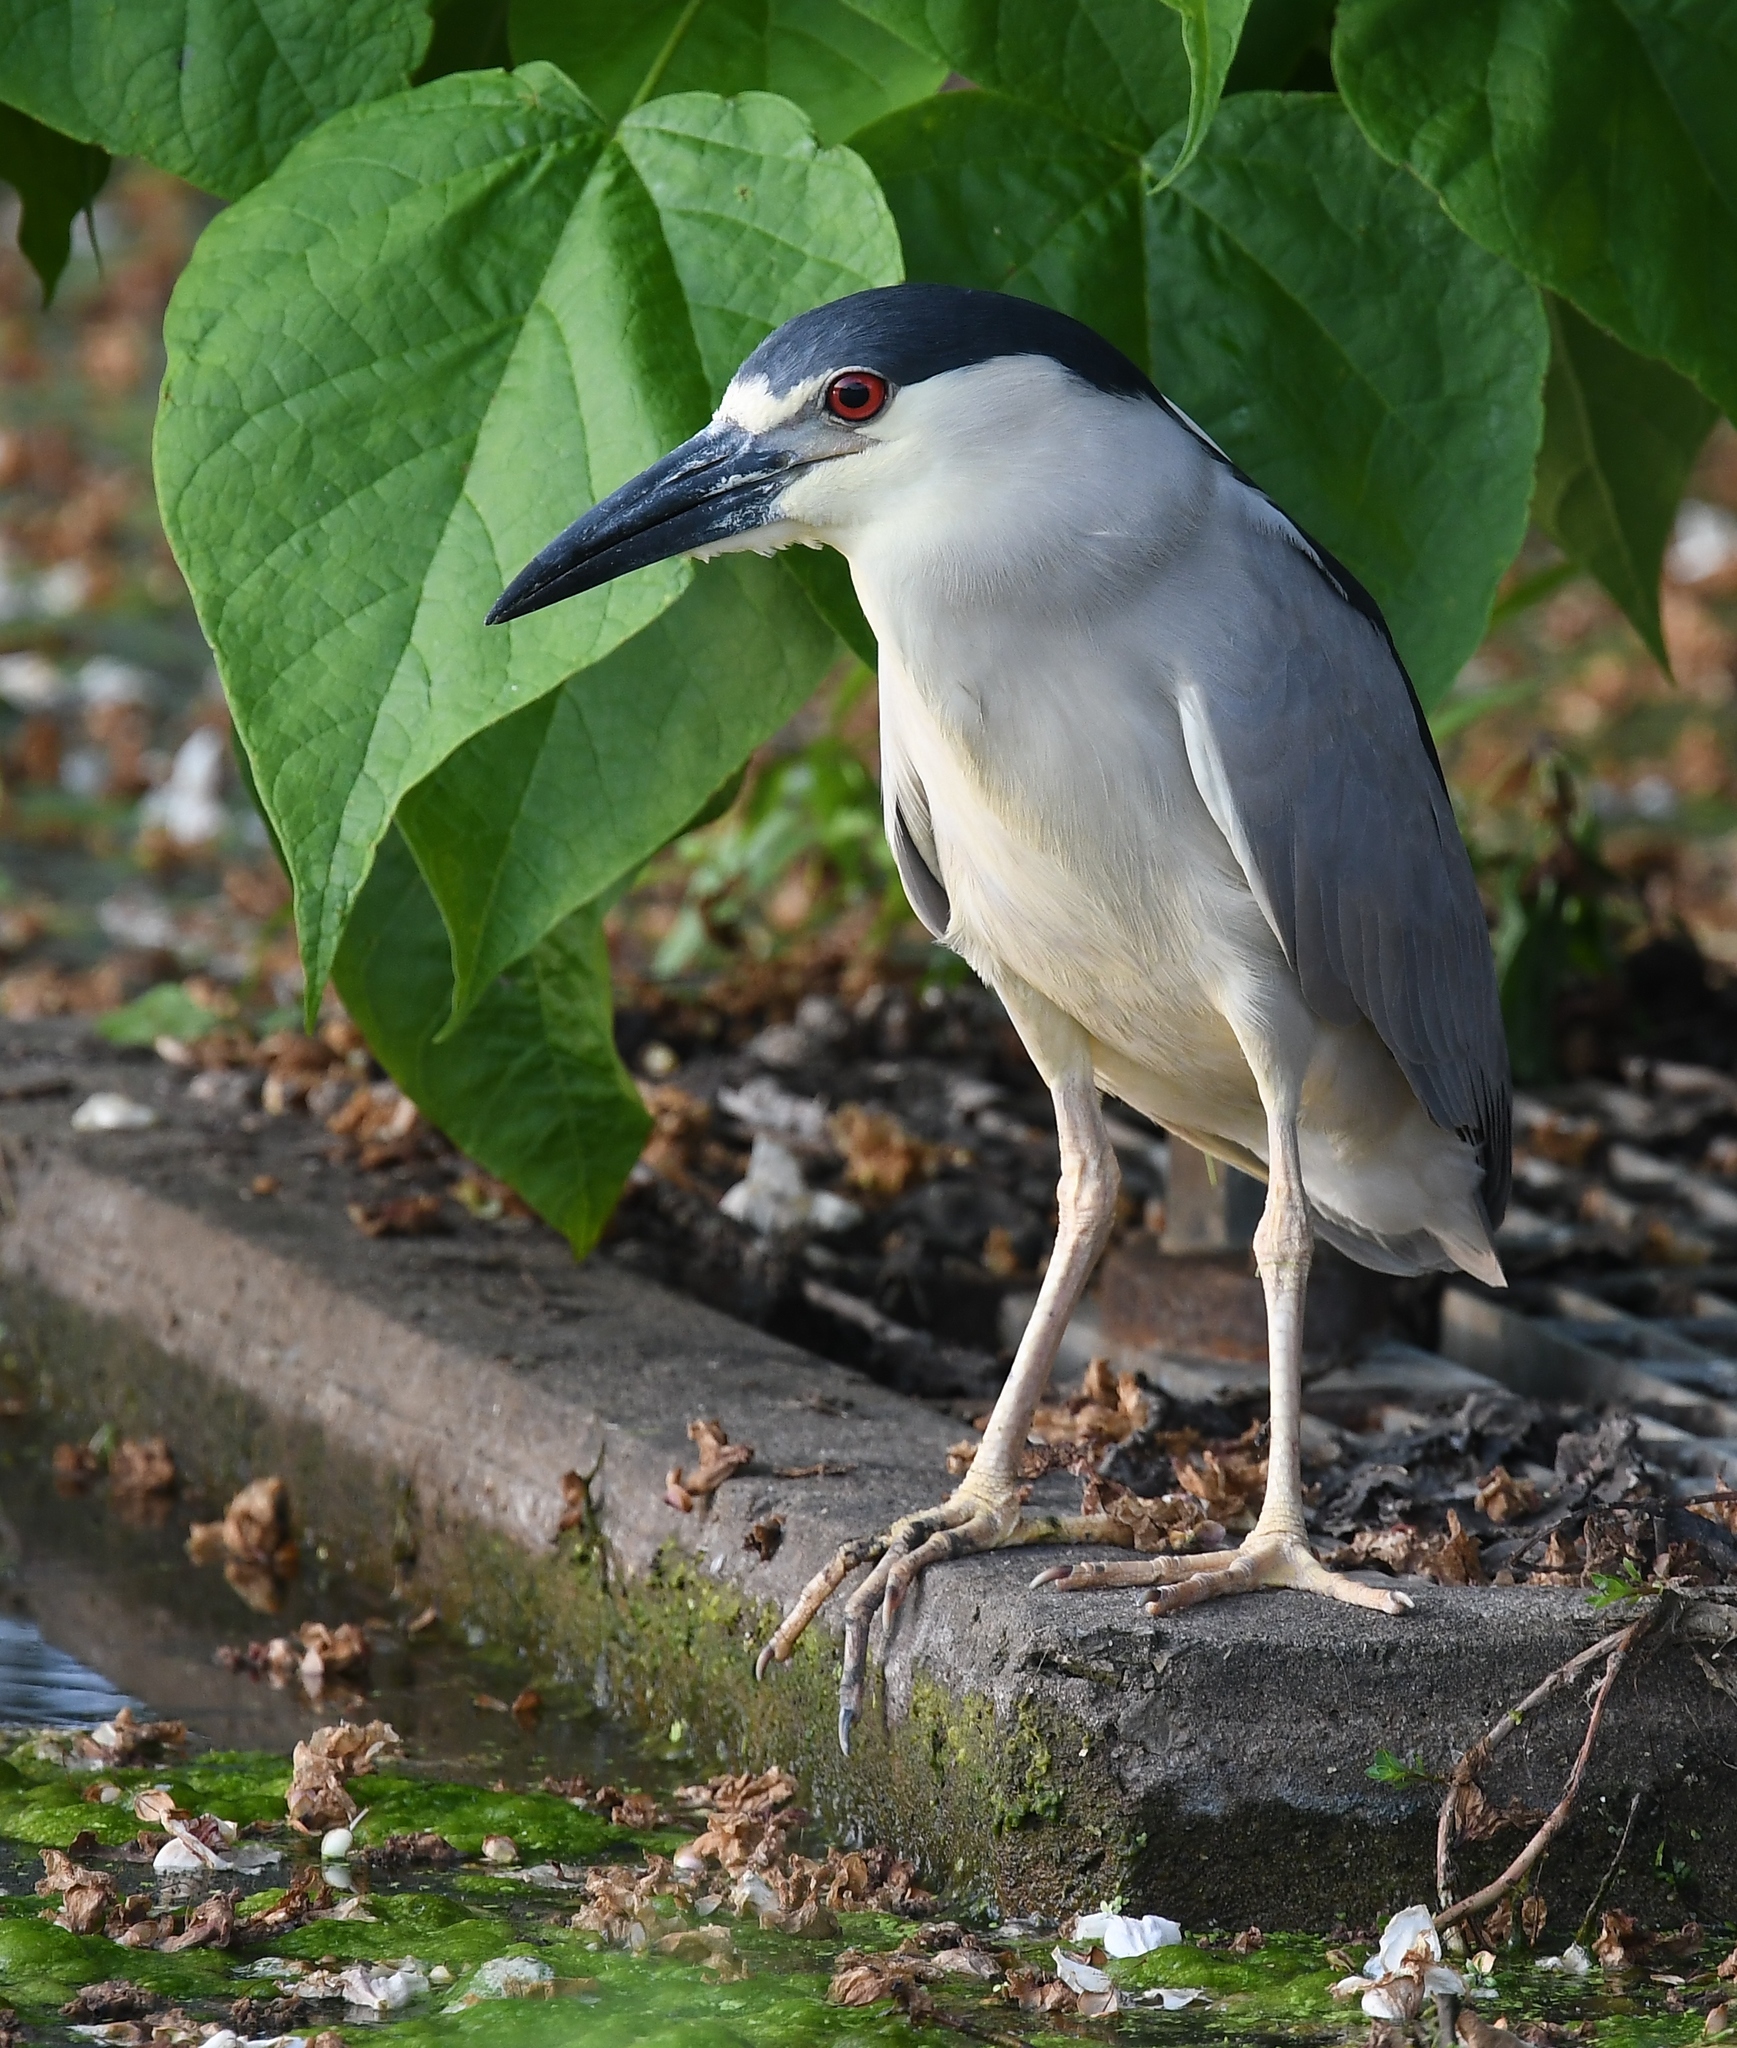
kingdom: Animalia
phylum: Chordata
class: Aves
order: Pelecaniformes
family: Ardeidae
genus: Nycticorax
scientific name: Nycticorax nycticorax
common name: Black-crowned night heron
